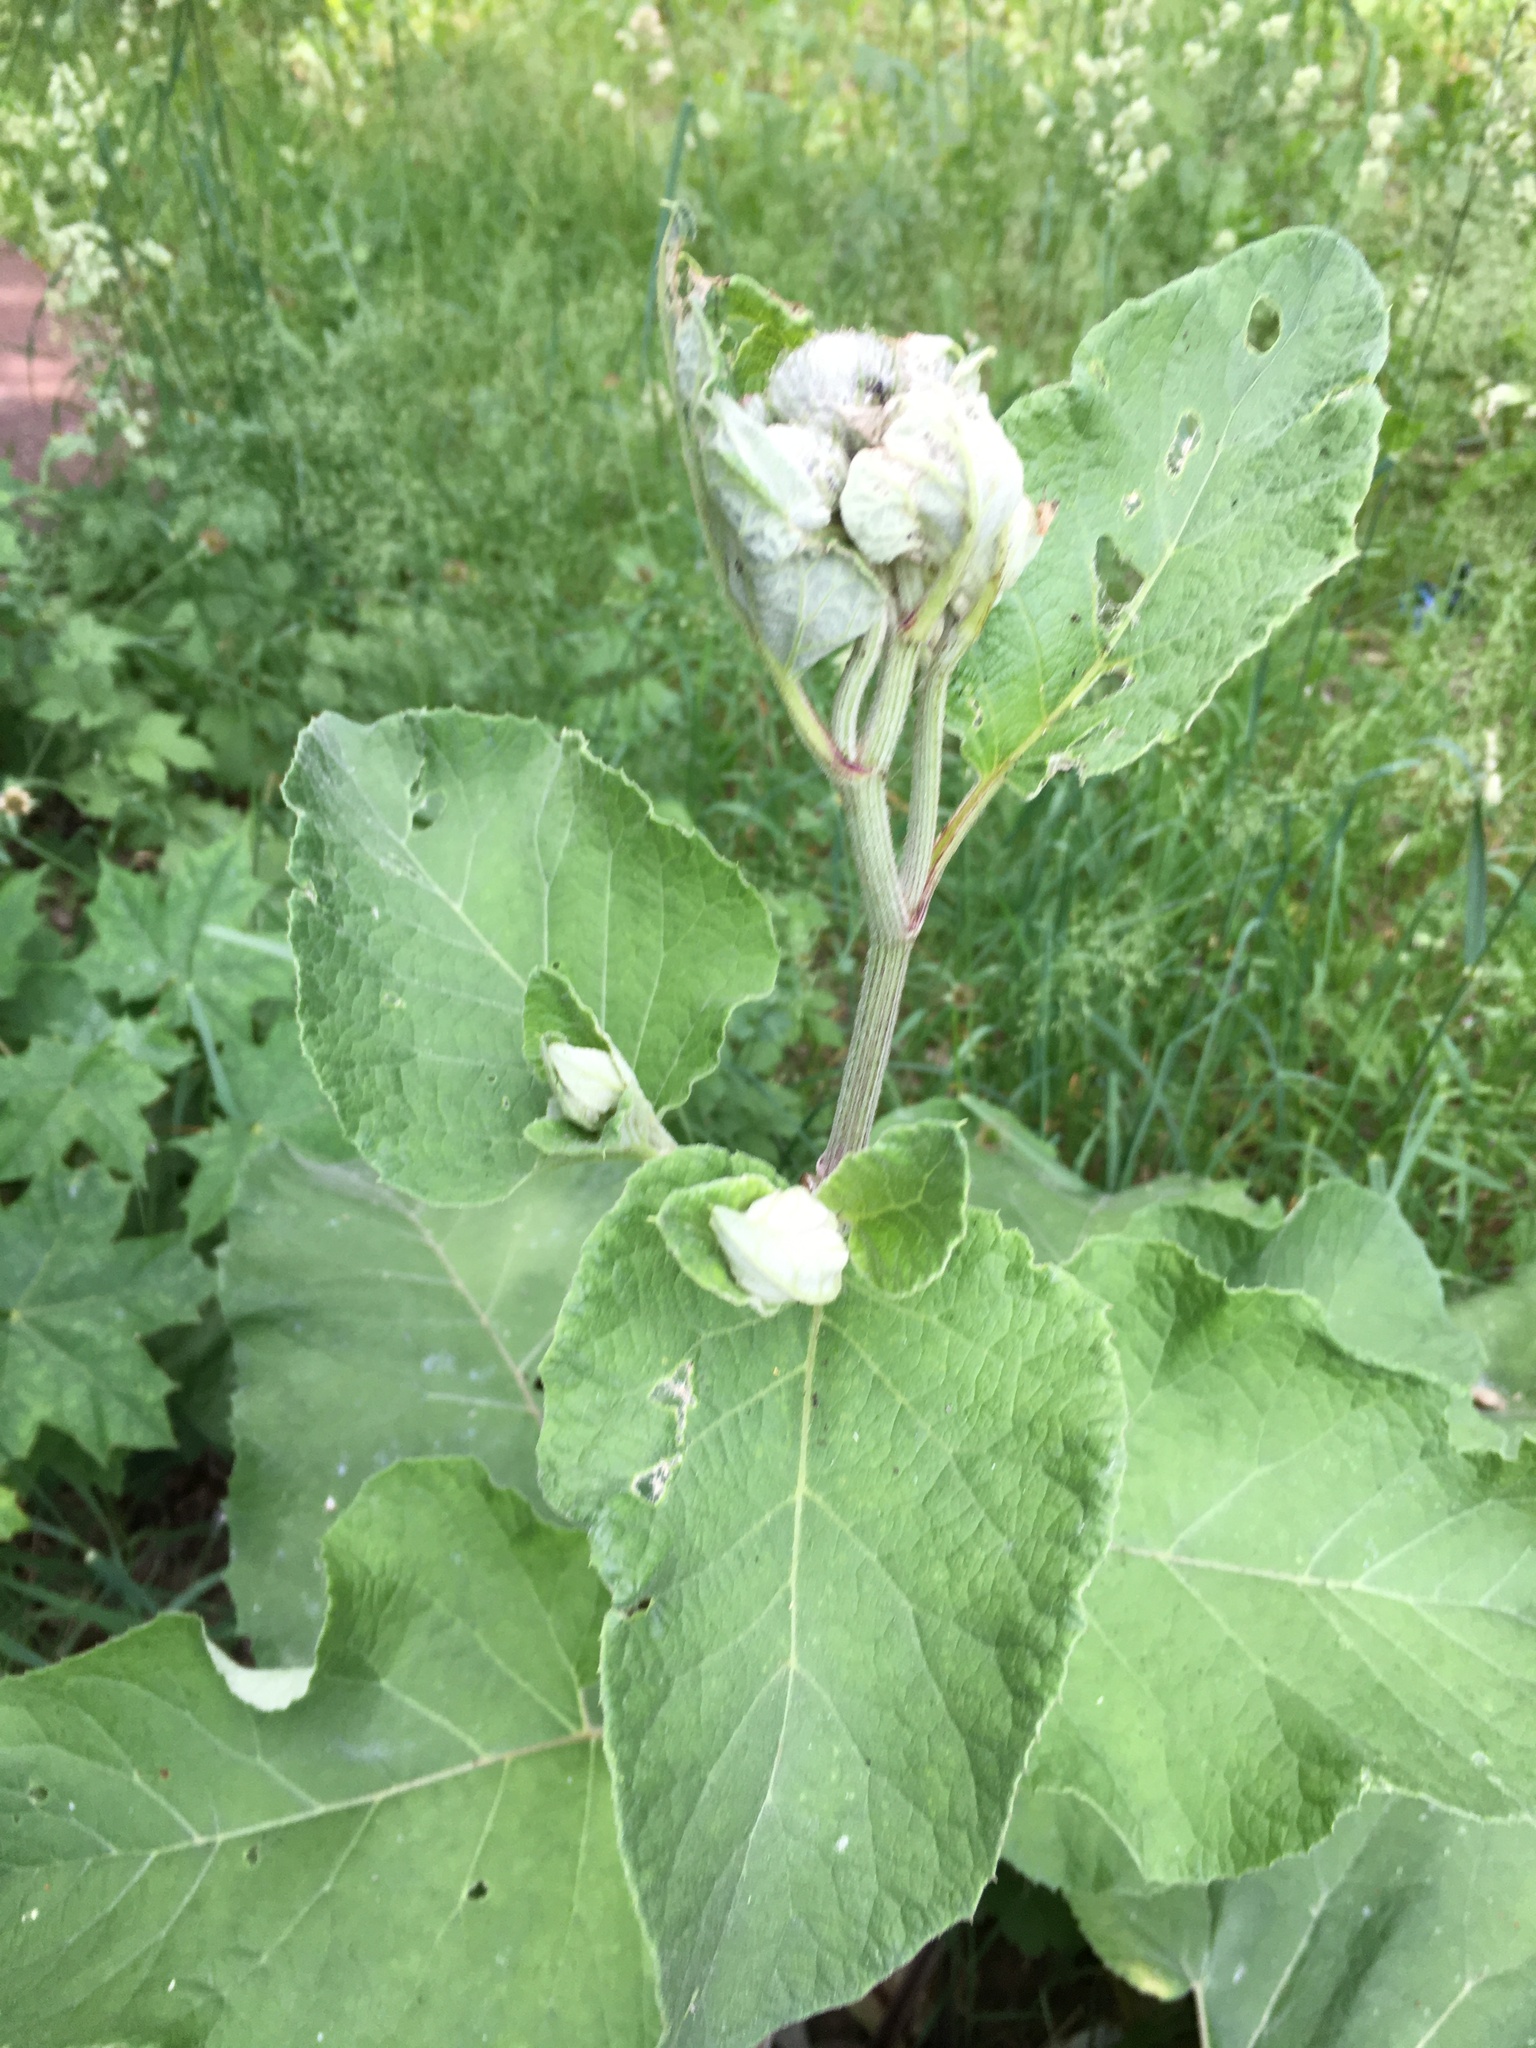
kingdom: Plantae
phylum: Tracheophyta
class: Magnoliopsida
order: Asterales
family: Asteraceae
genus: Arctium
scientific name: Arctium tomentosum
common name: Woolly burdock
